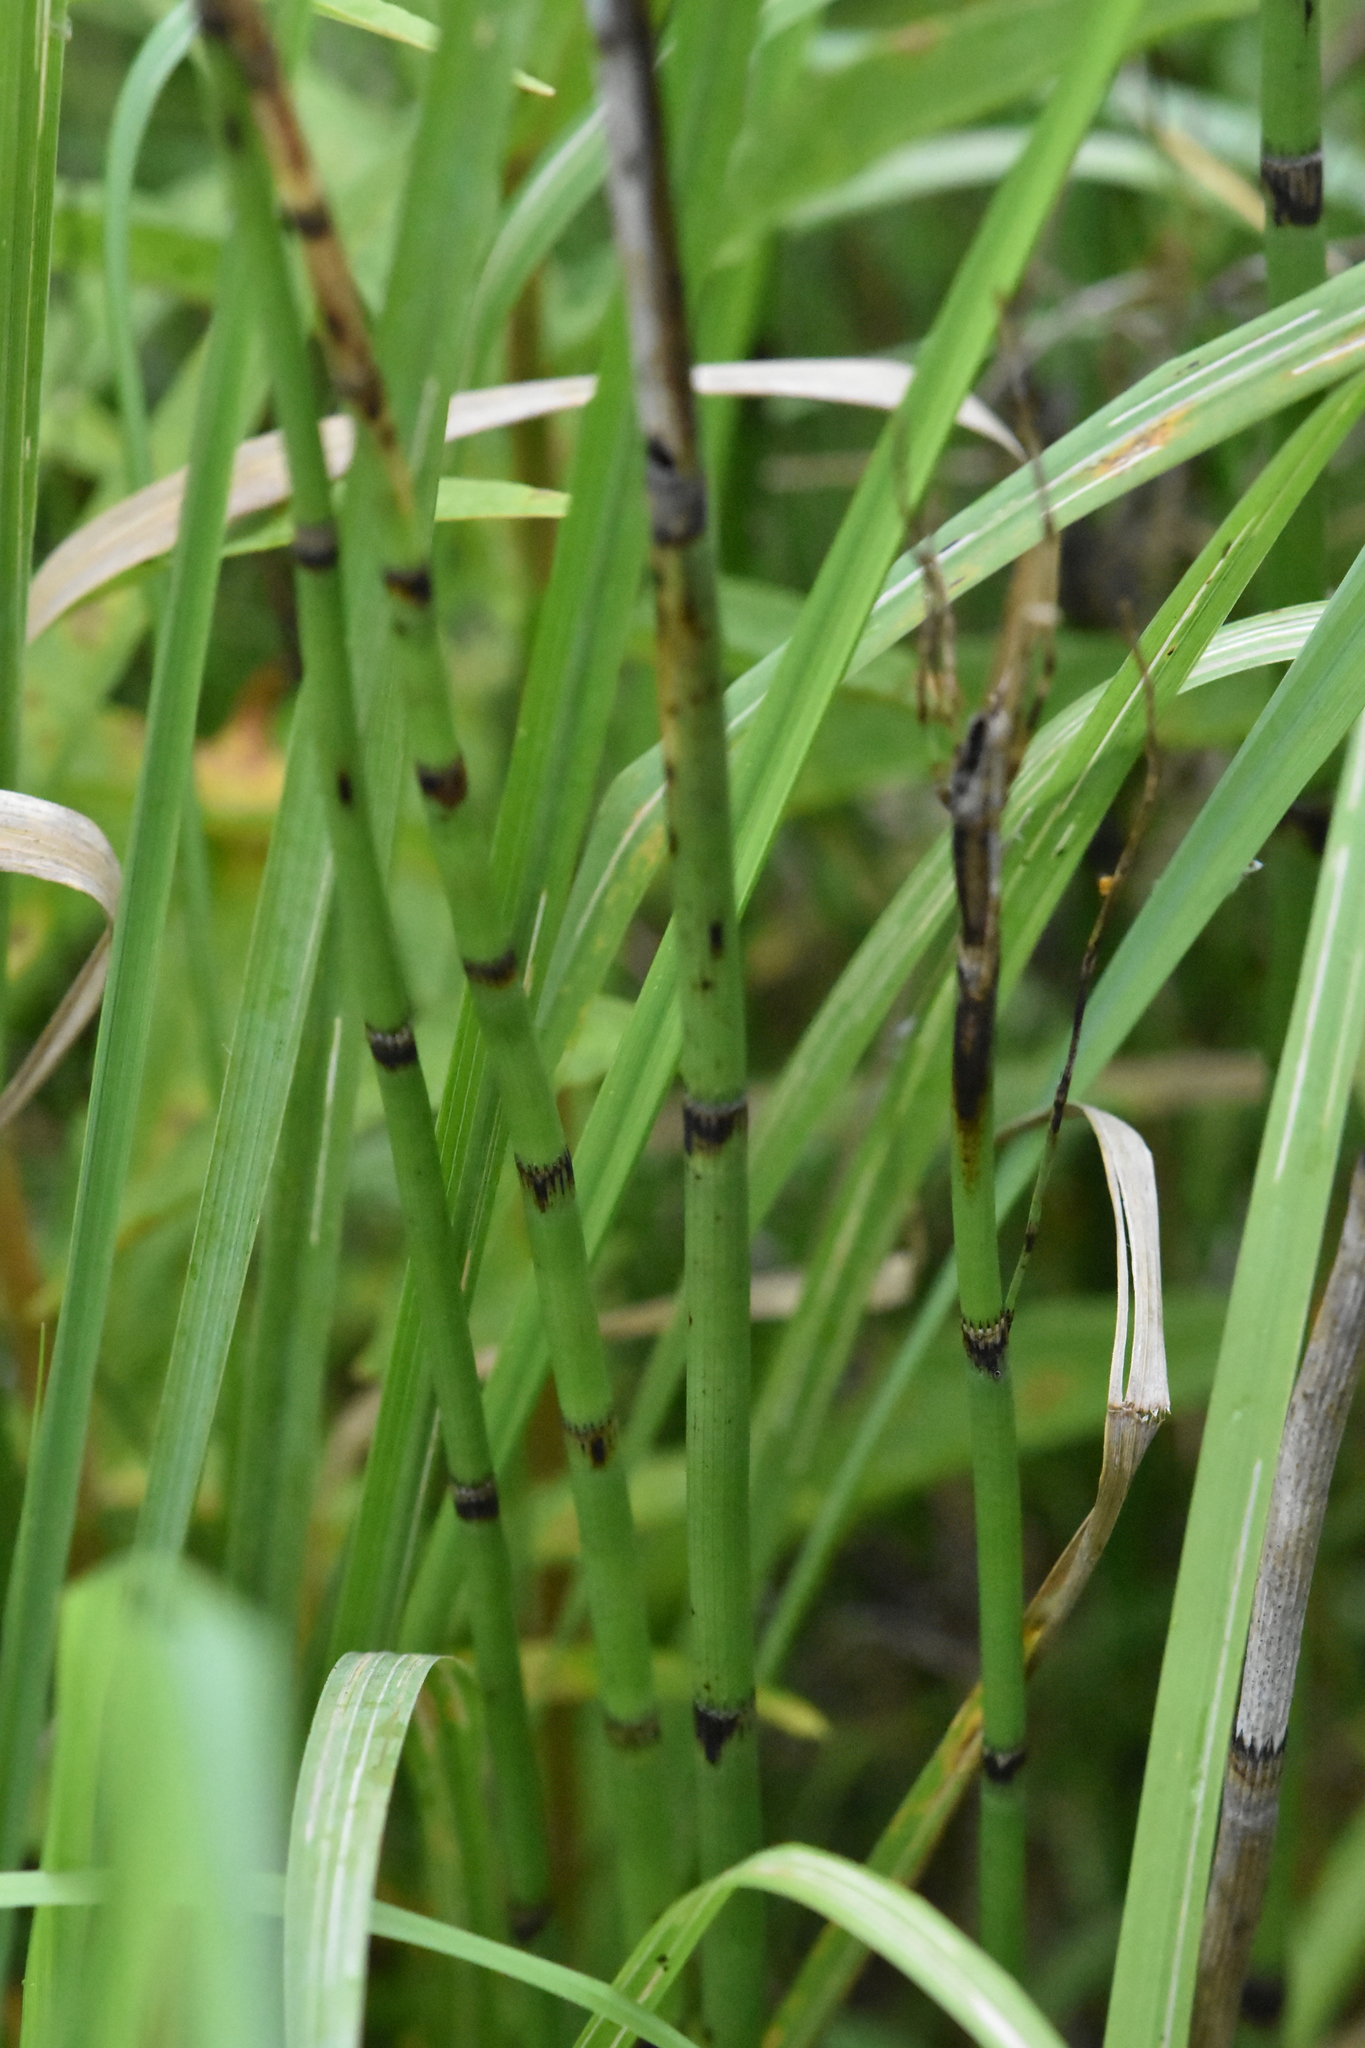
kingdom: Plantae
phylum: Tracheophyta
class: Polypodiopsida
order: Equisetales
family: Equisetaceae
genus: Equisetum
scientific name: Equisetum fluviatile
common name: Water horsetail
